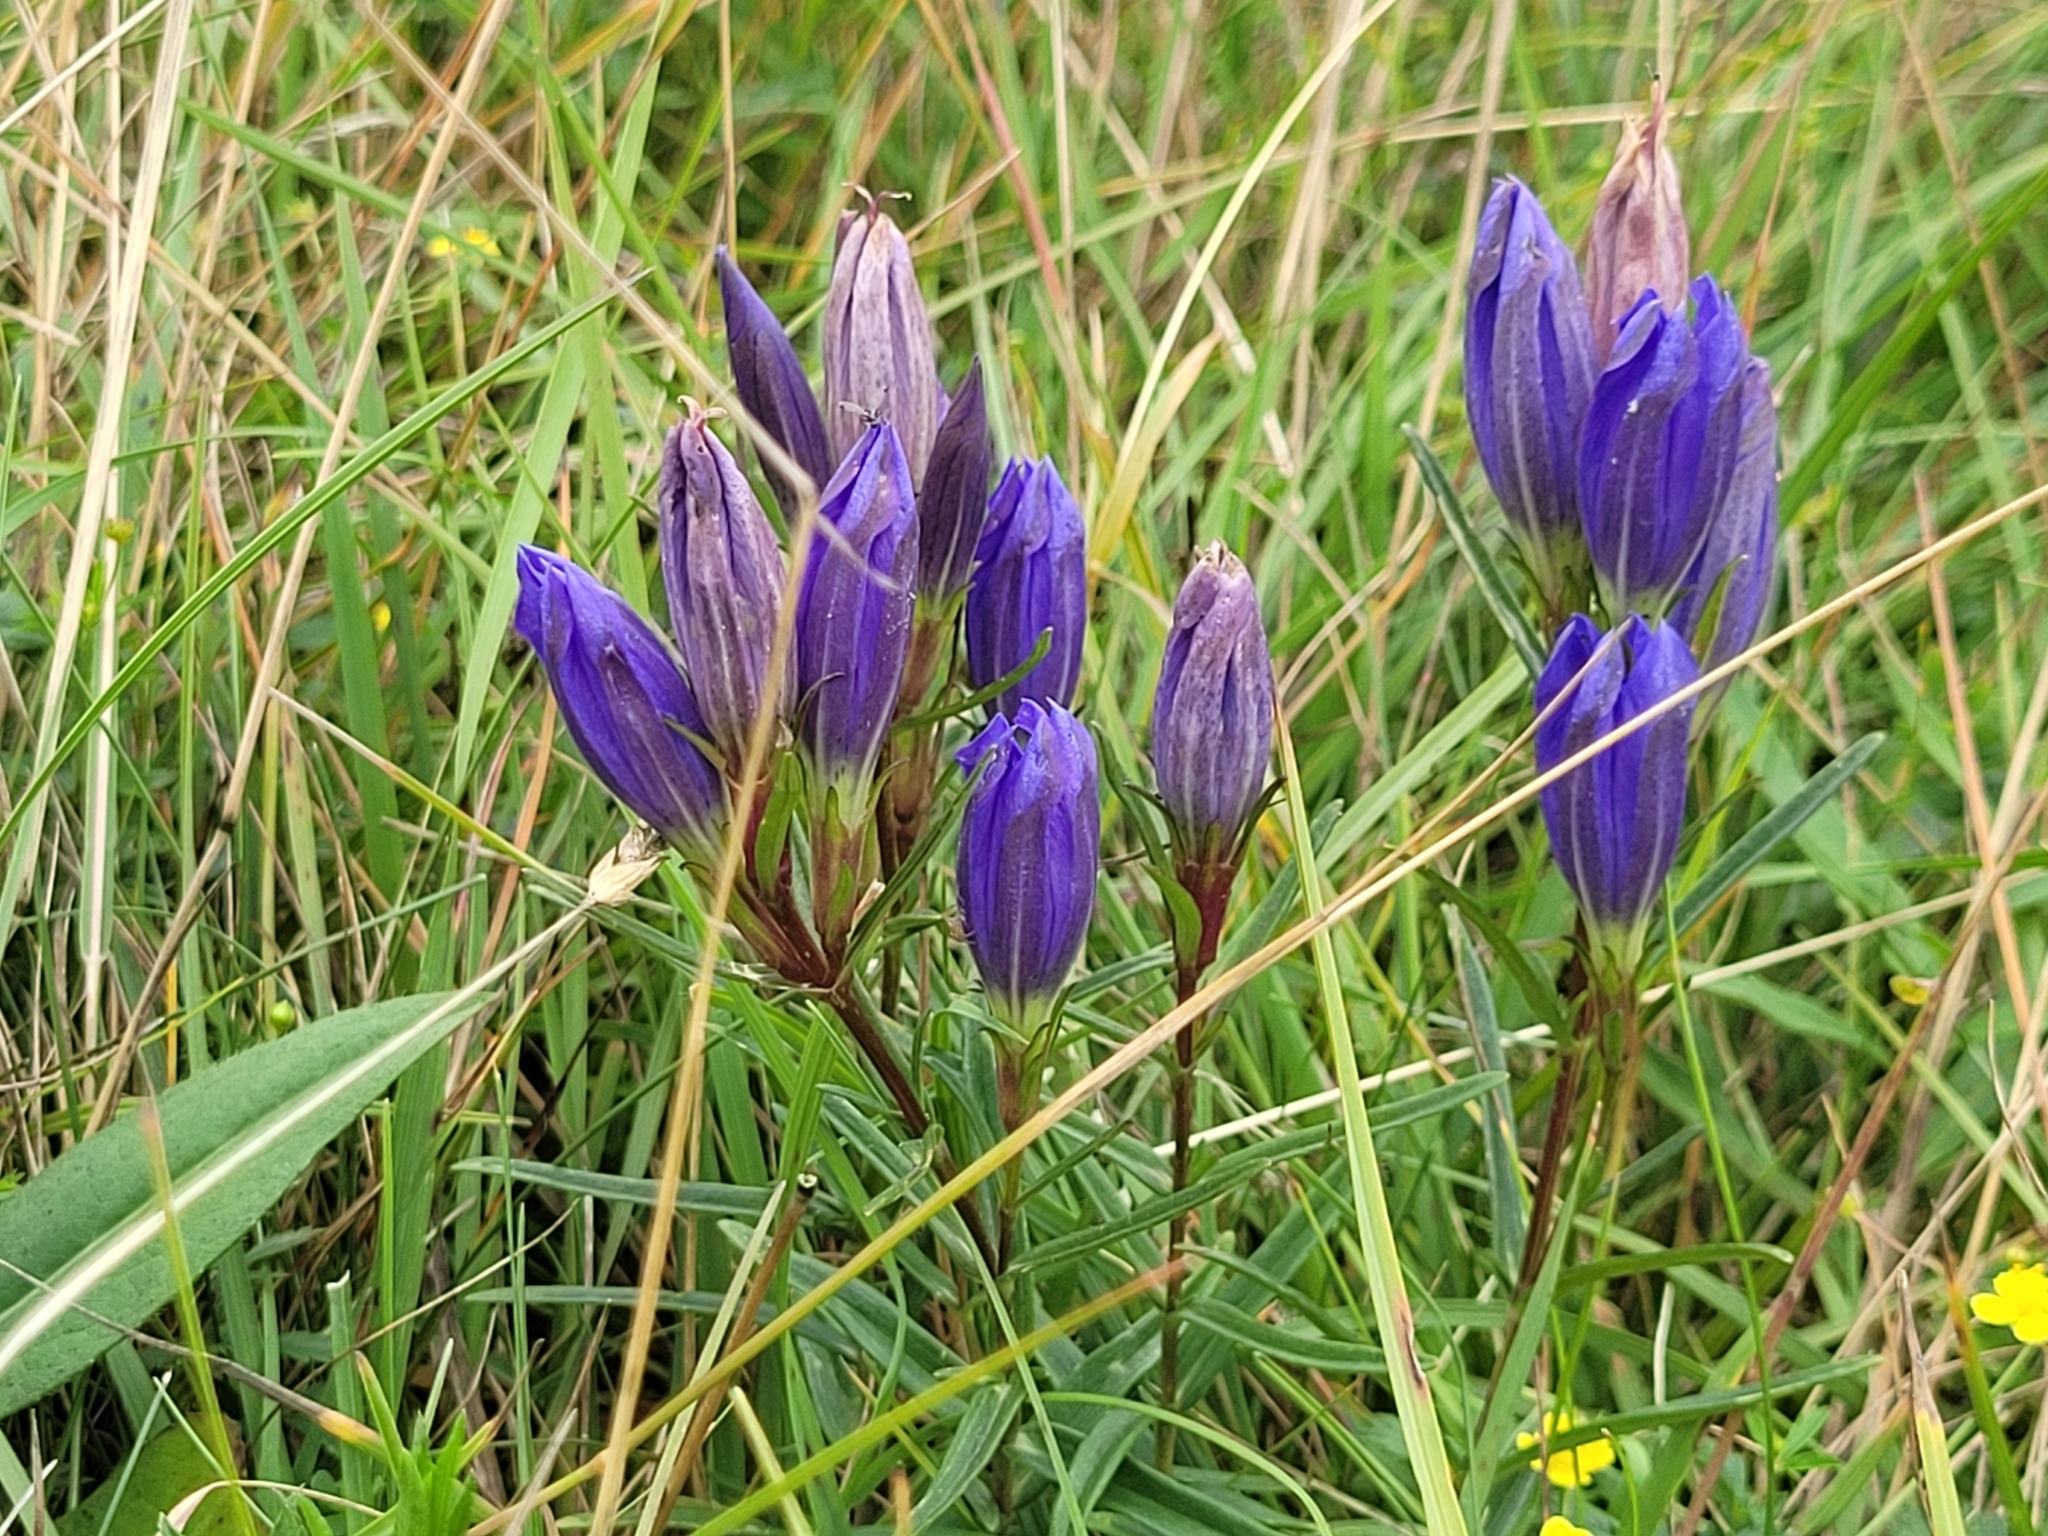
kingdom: Plantae
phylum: Tracheophyta
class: Magnoliopsida
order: Gentianales
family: Gentianaceae
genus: Gentiana
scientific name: Gentiana pneumonanthe
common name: Marsh gentian
